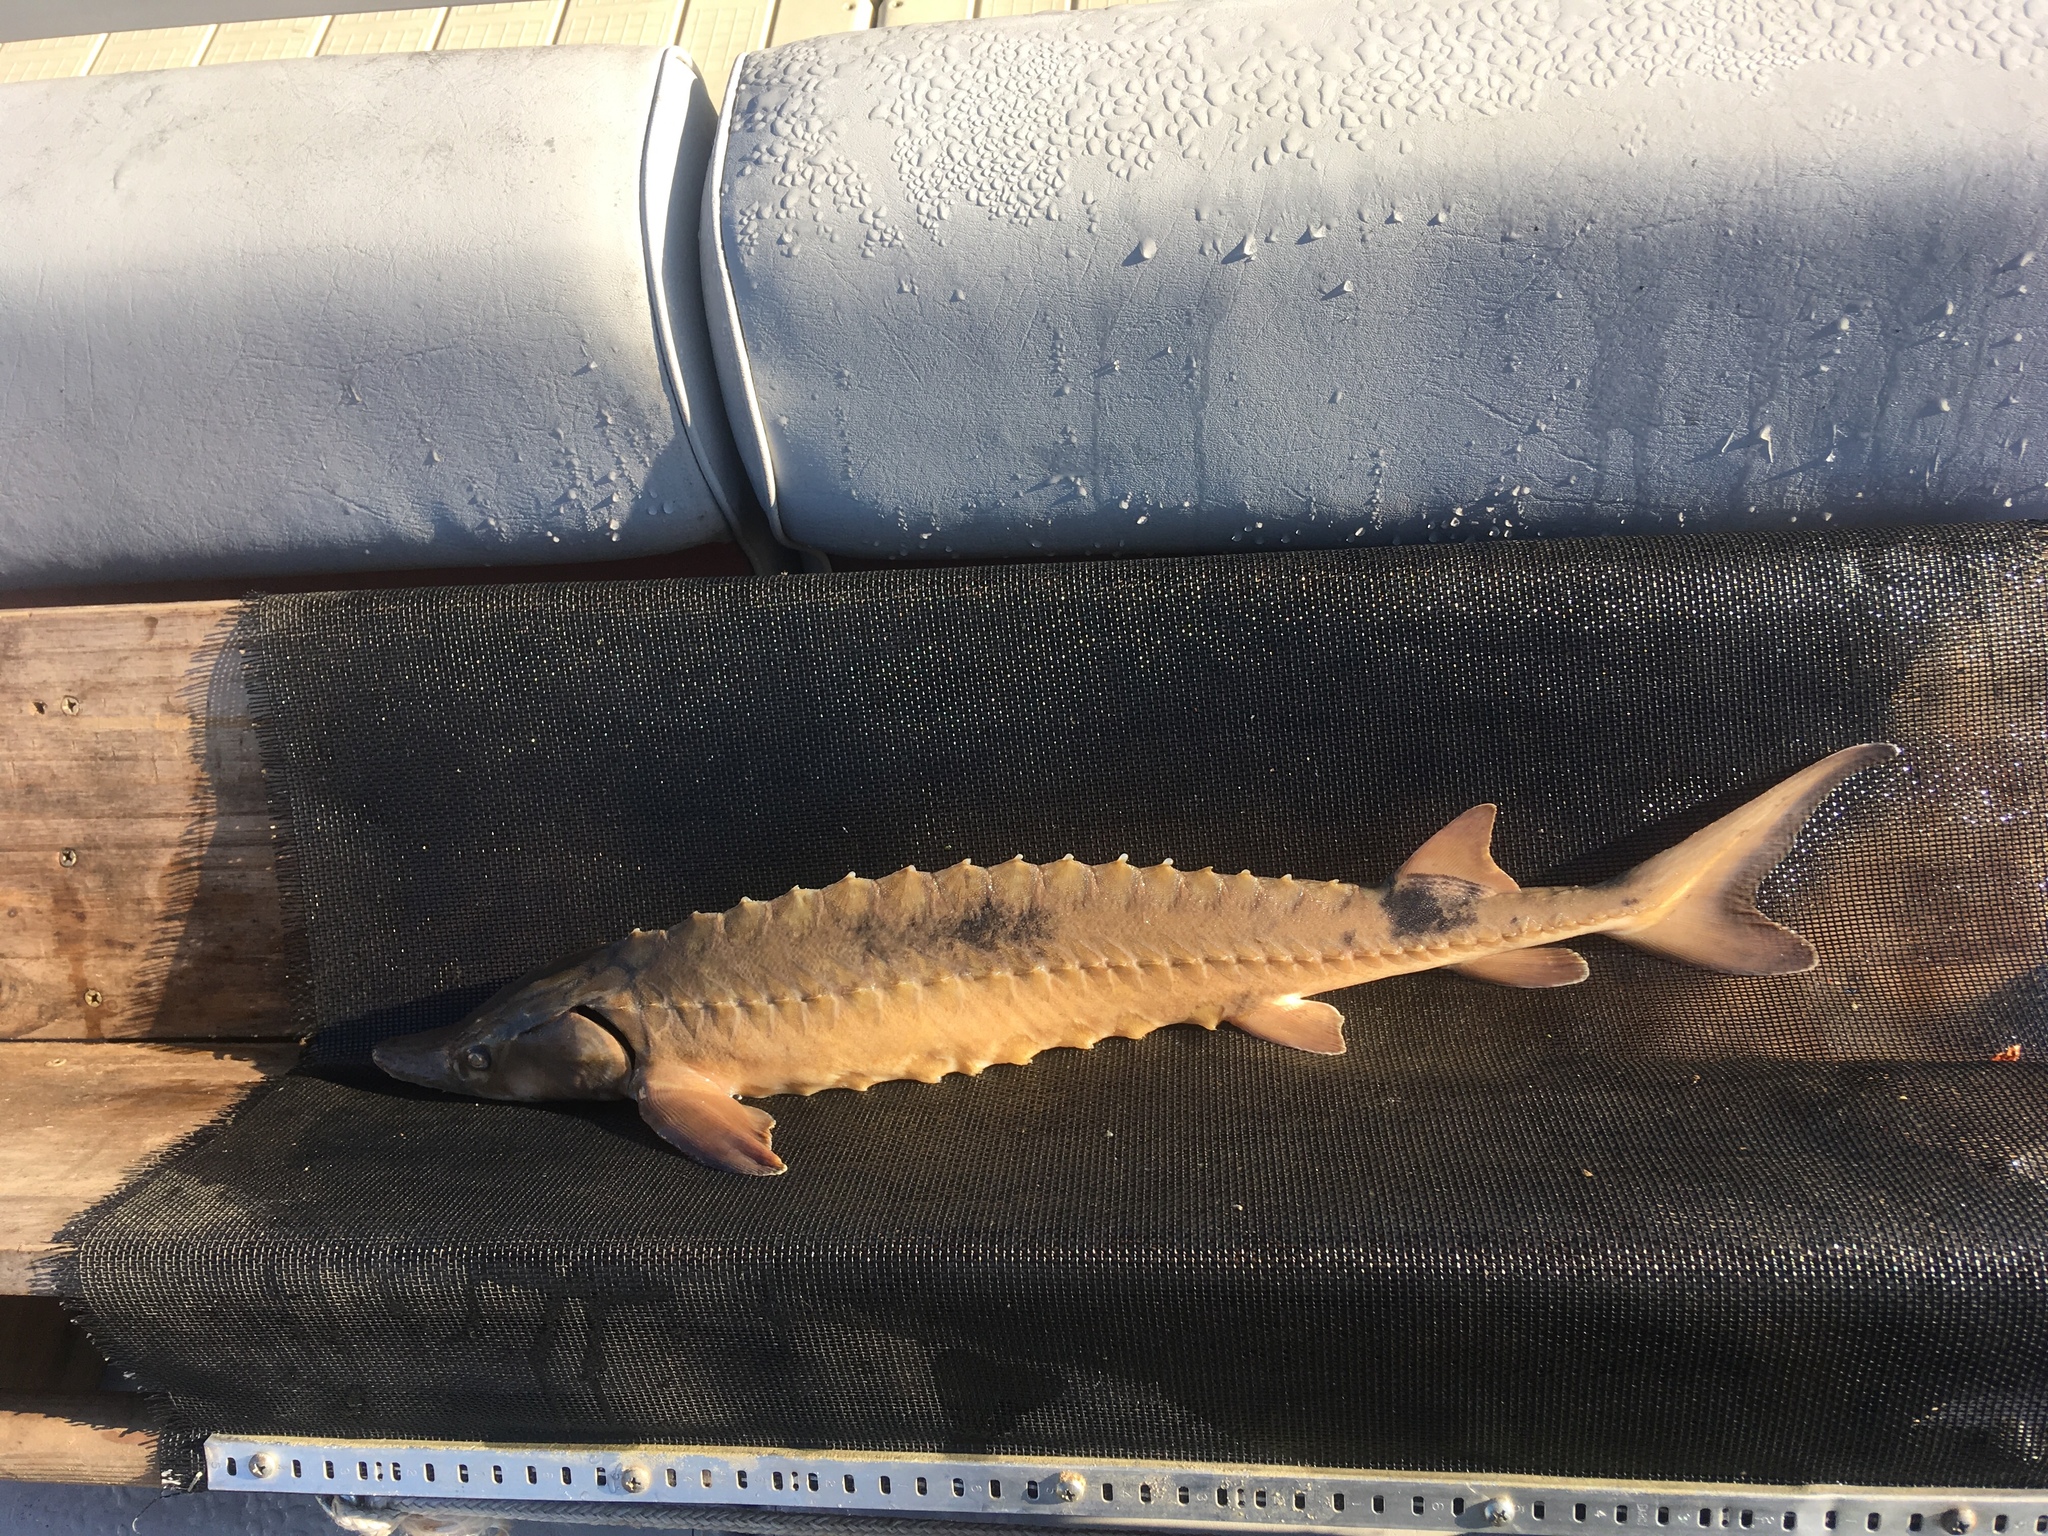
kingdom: Animalia
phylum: Chordata
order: Acipenseriformes
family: Acipenseridae
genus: Acipenser
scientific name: Acipenser fulvescens
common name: Lake sturgeon
